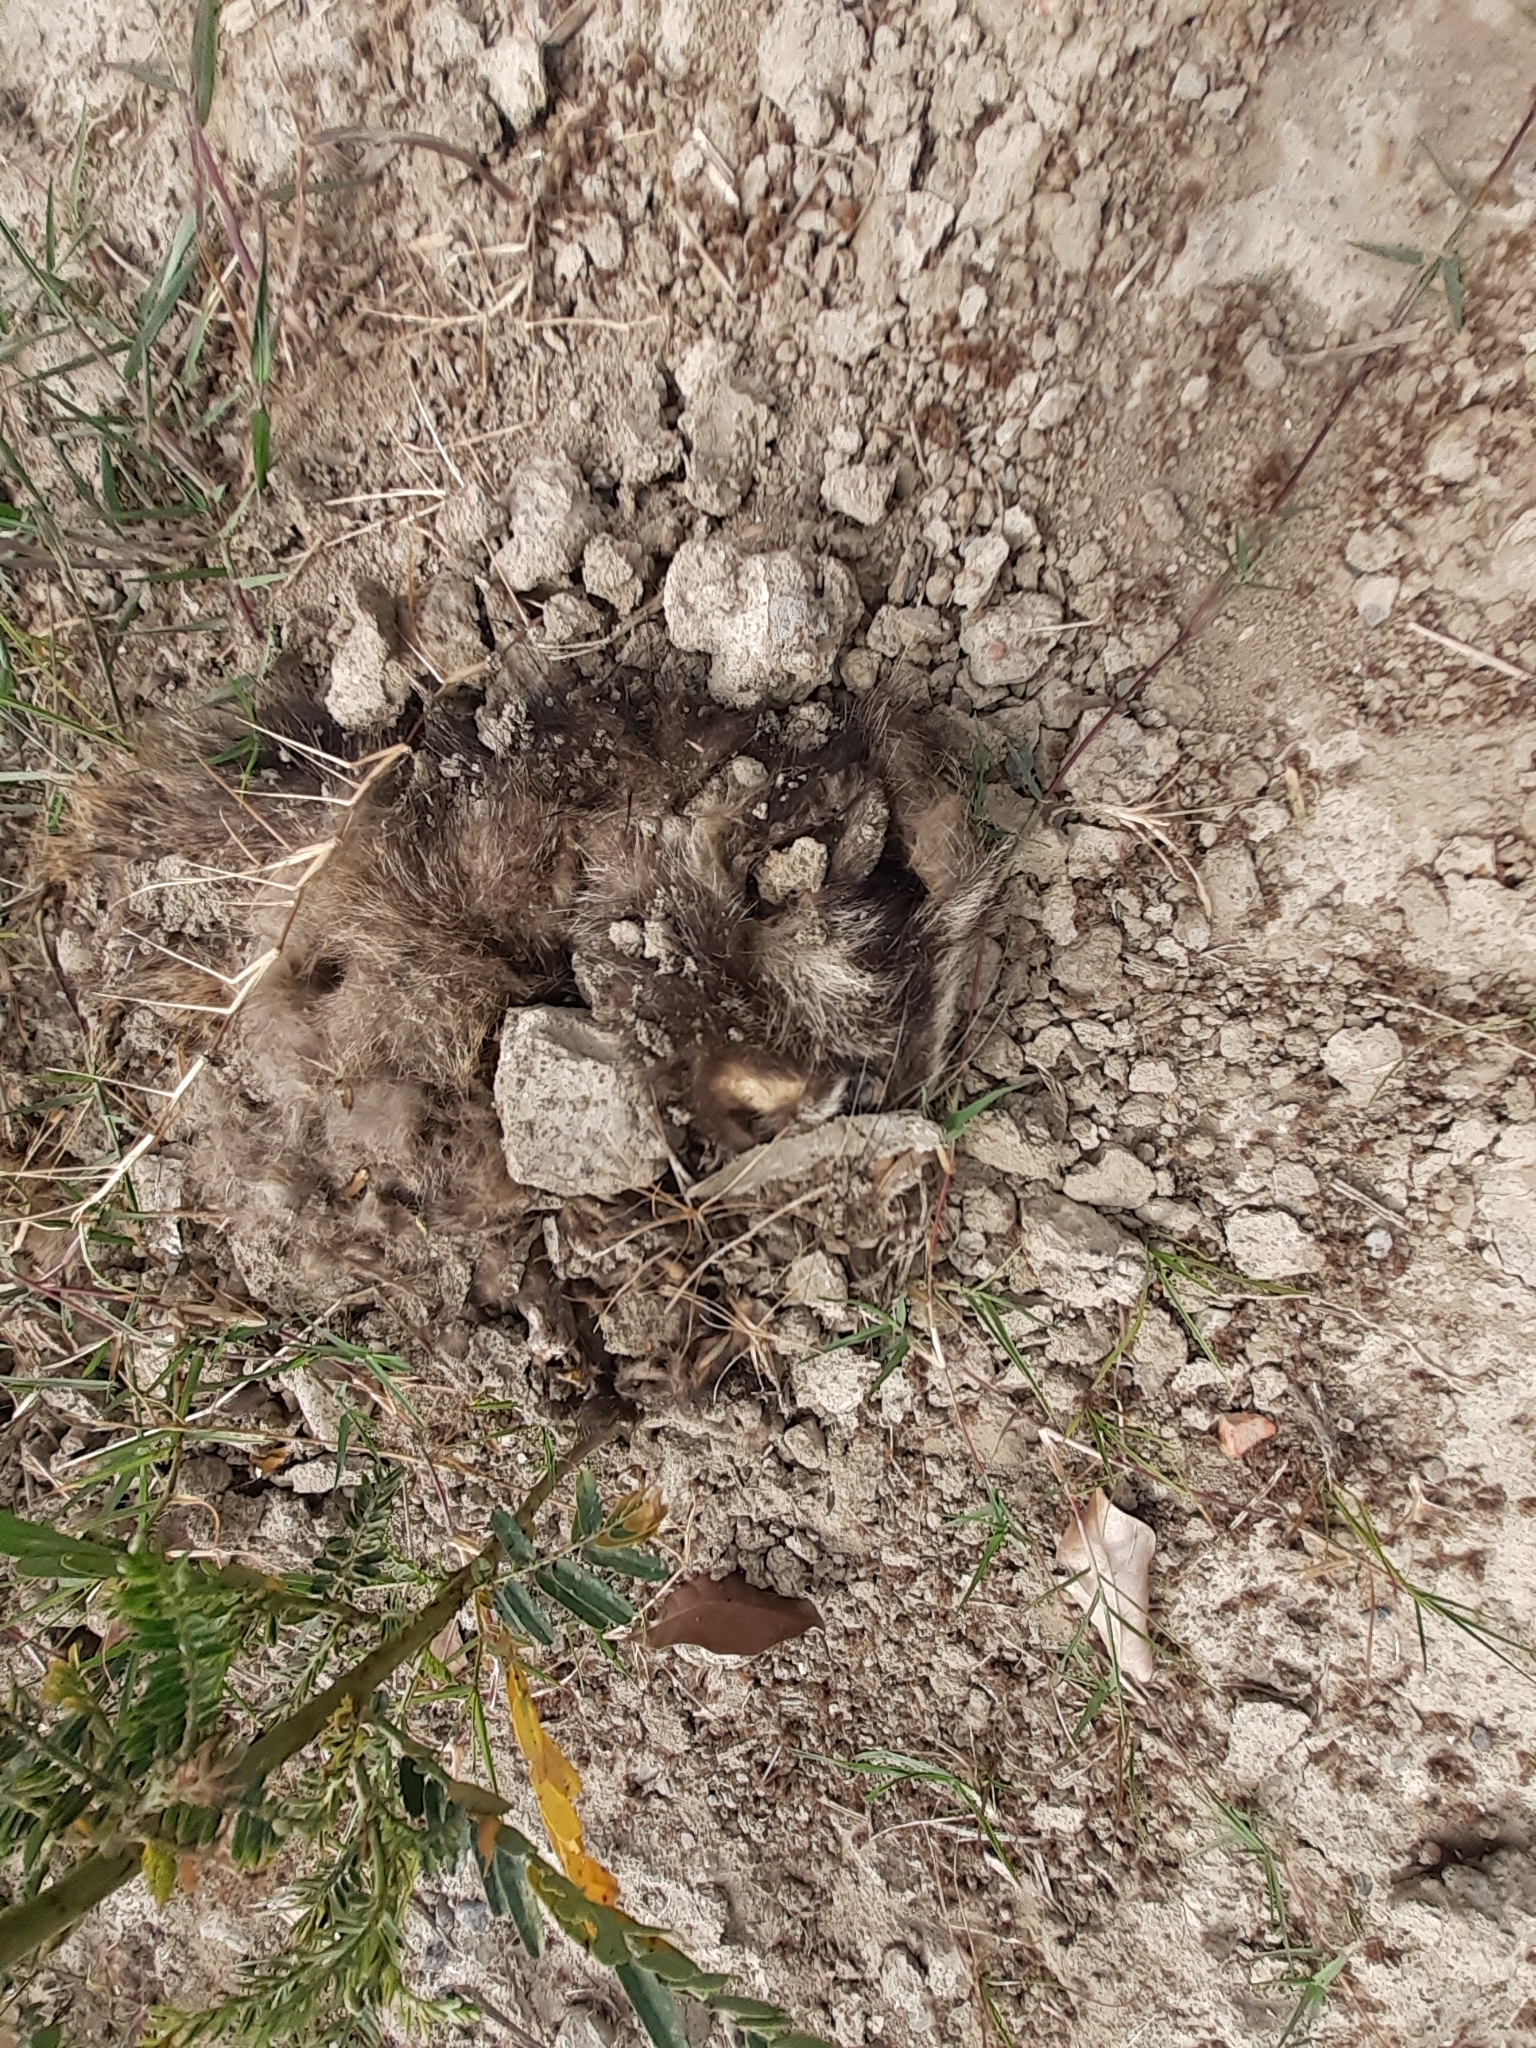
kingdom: Animalia
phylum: Chordata
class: Mammalia
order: Carnivora
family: Viverridae
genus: Paguma
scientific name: Paguma larvata
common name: Masked palm civet
